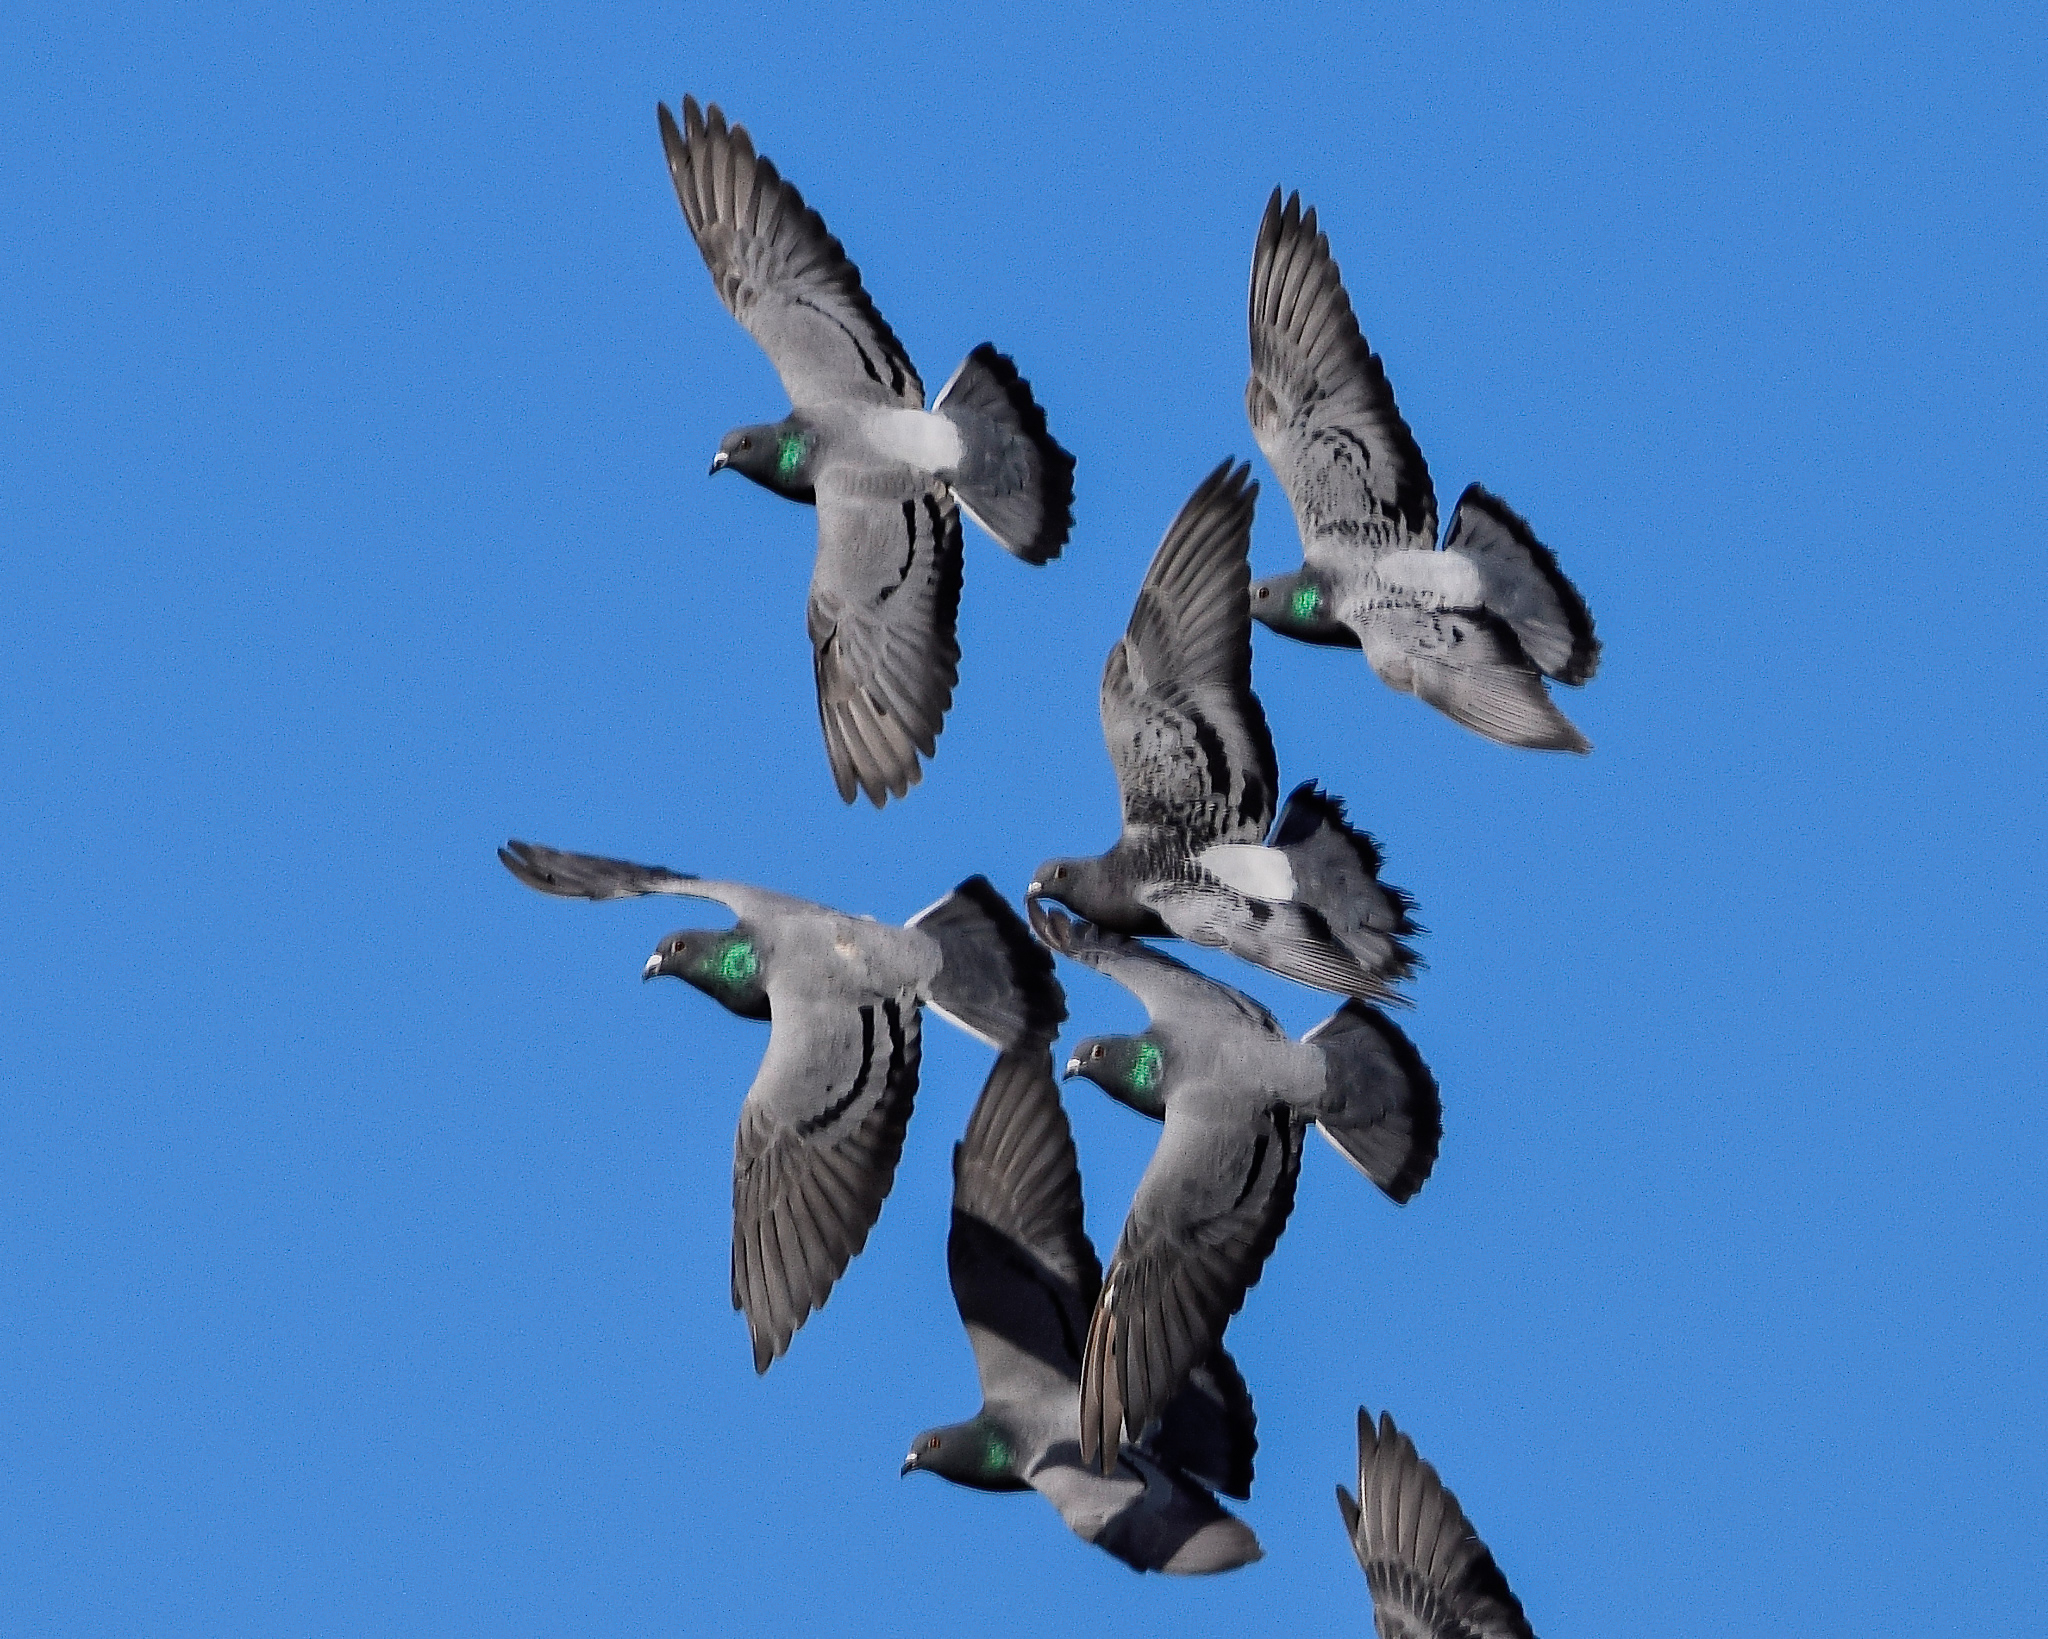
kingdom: Animalia
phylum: Chordata
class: Aves
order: Columbiformes
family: Columbidae
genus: Columba
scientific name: Columba livia
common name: Rock pigeon
